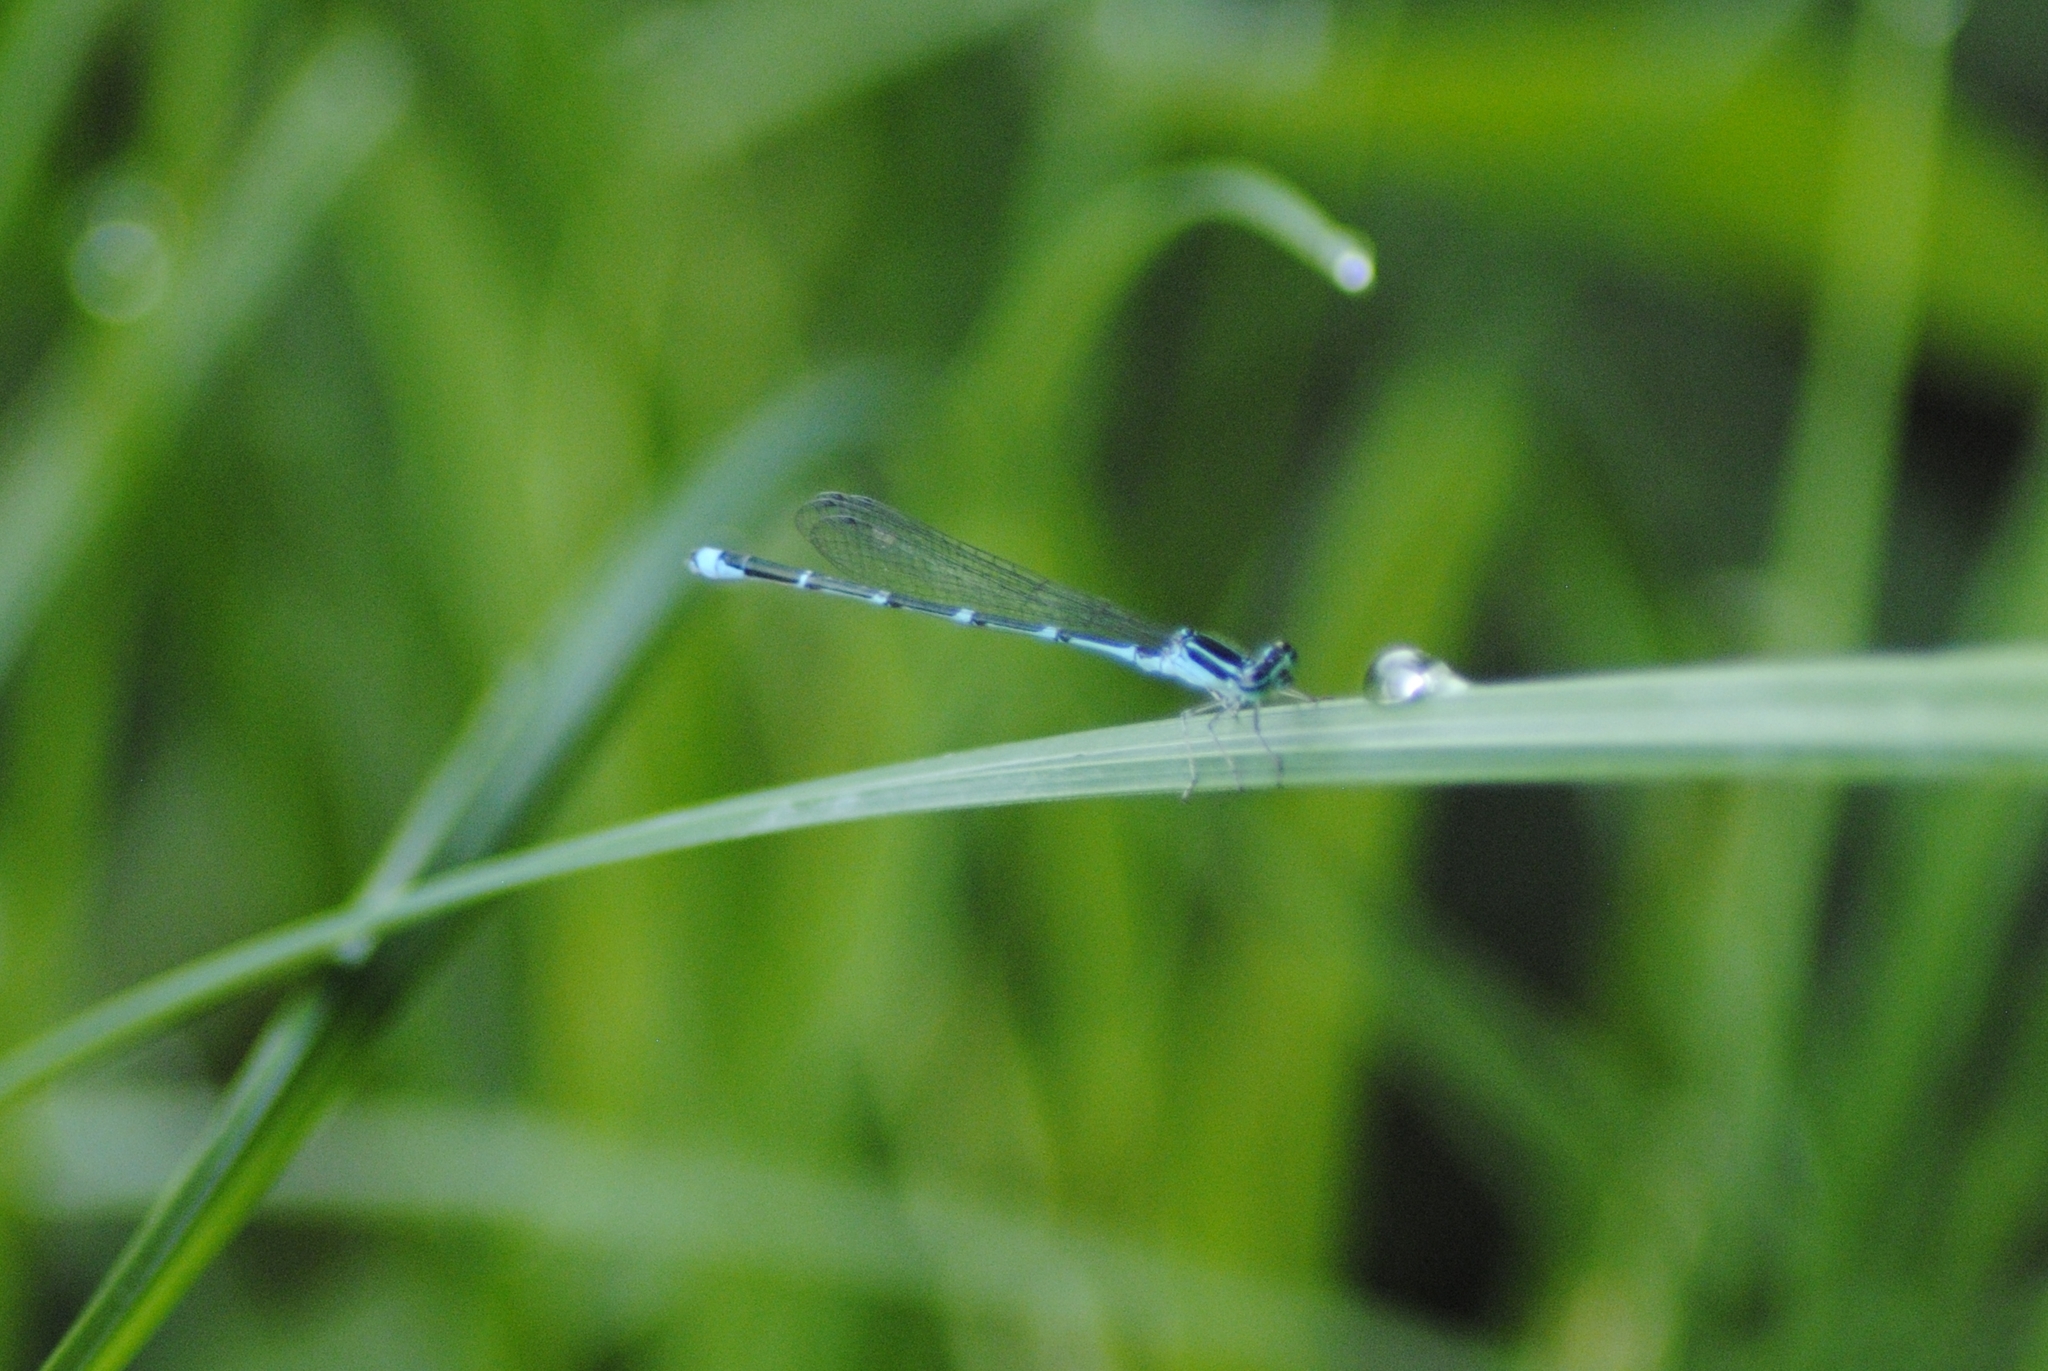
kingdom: Animalia
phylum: Arthropoda
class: Insecta
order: Odonata
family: Coenagrionidae
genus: Enallagma
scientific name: Enallagma exsulans
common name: Stream bluet
